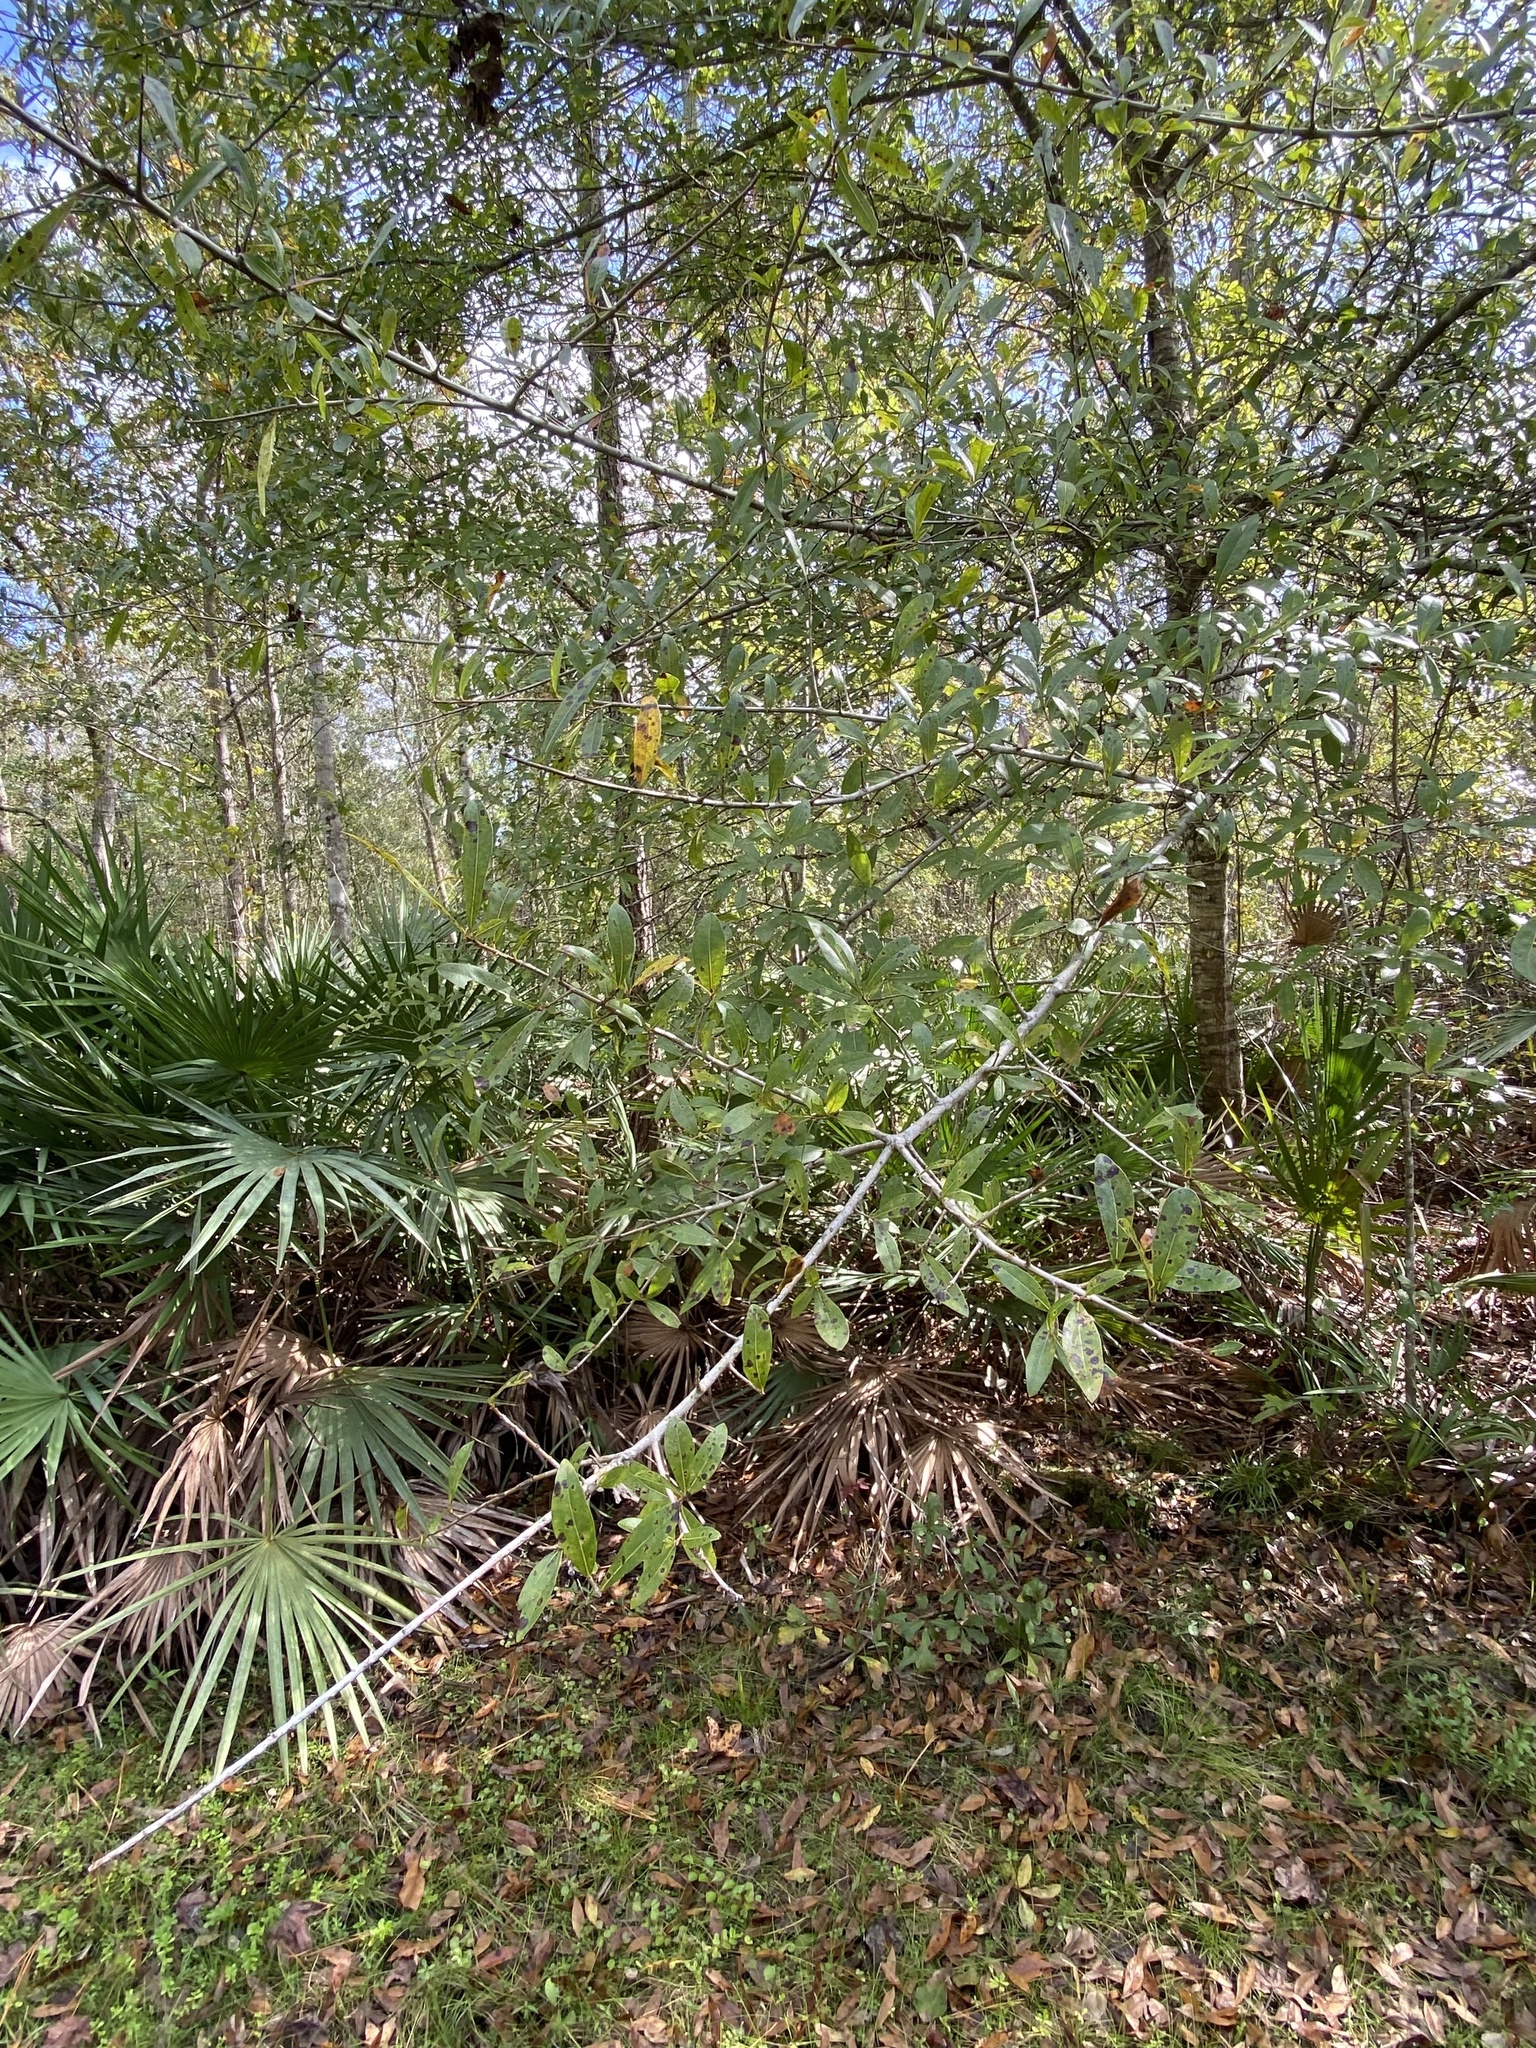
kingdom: Plantae
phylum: Tracheophyta
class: Magnoliopsida
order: Fagales
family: Fagaceae
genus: Quercus
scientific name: Quercus laurifolia
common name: Swamp laurel oak
